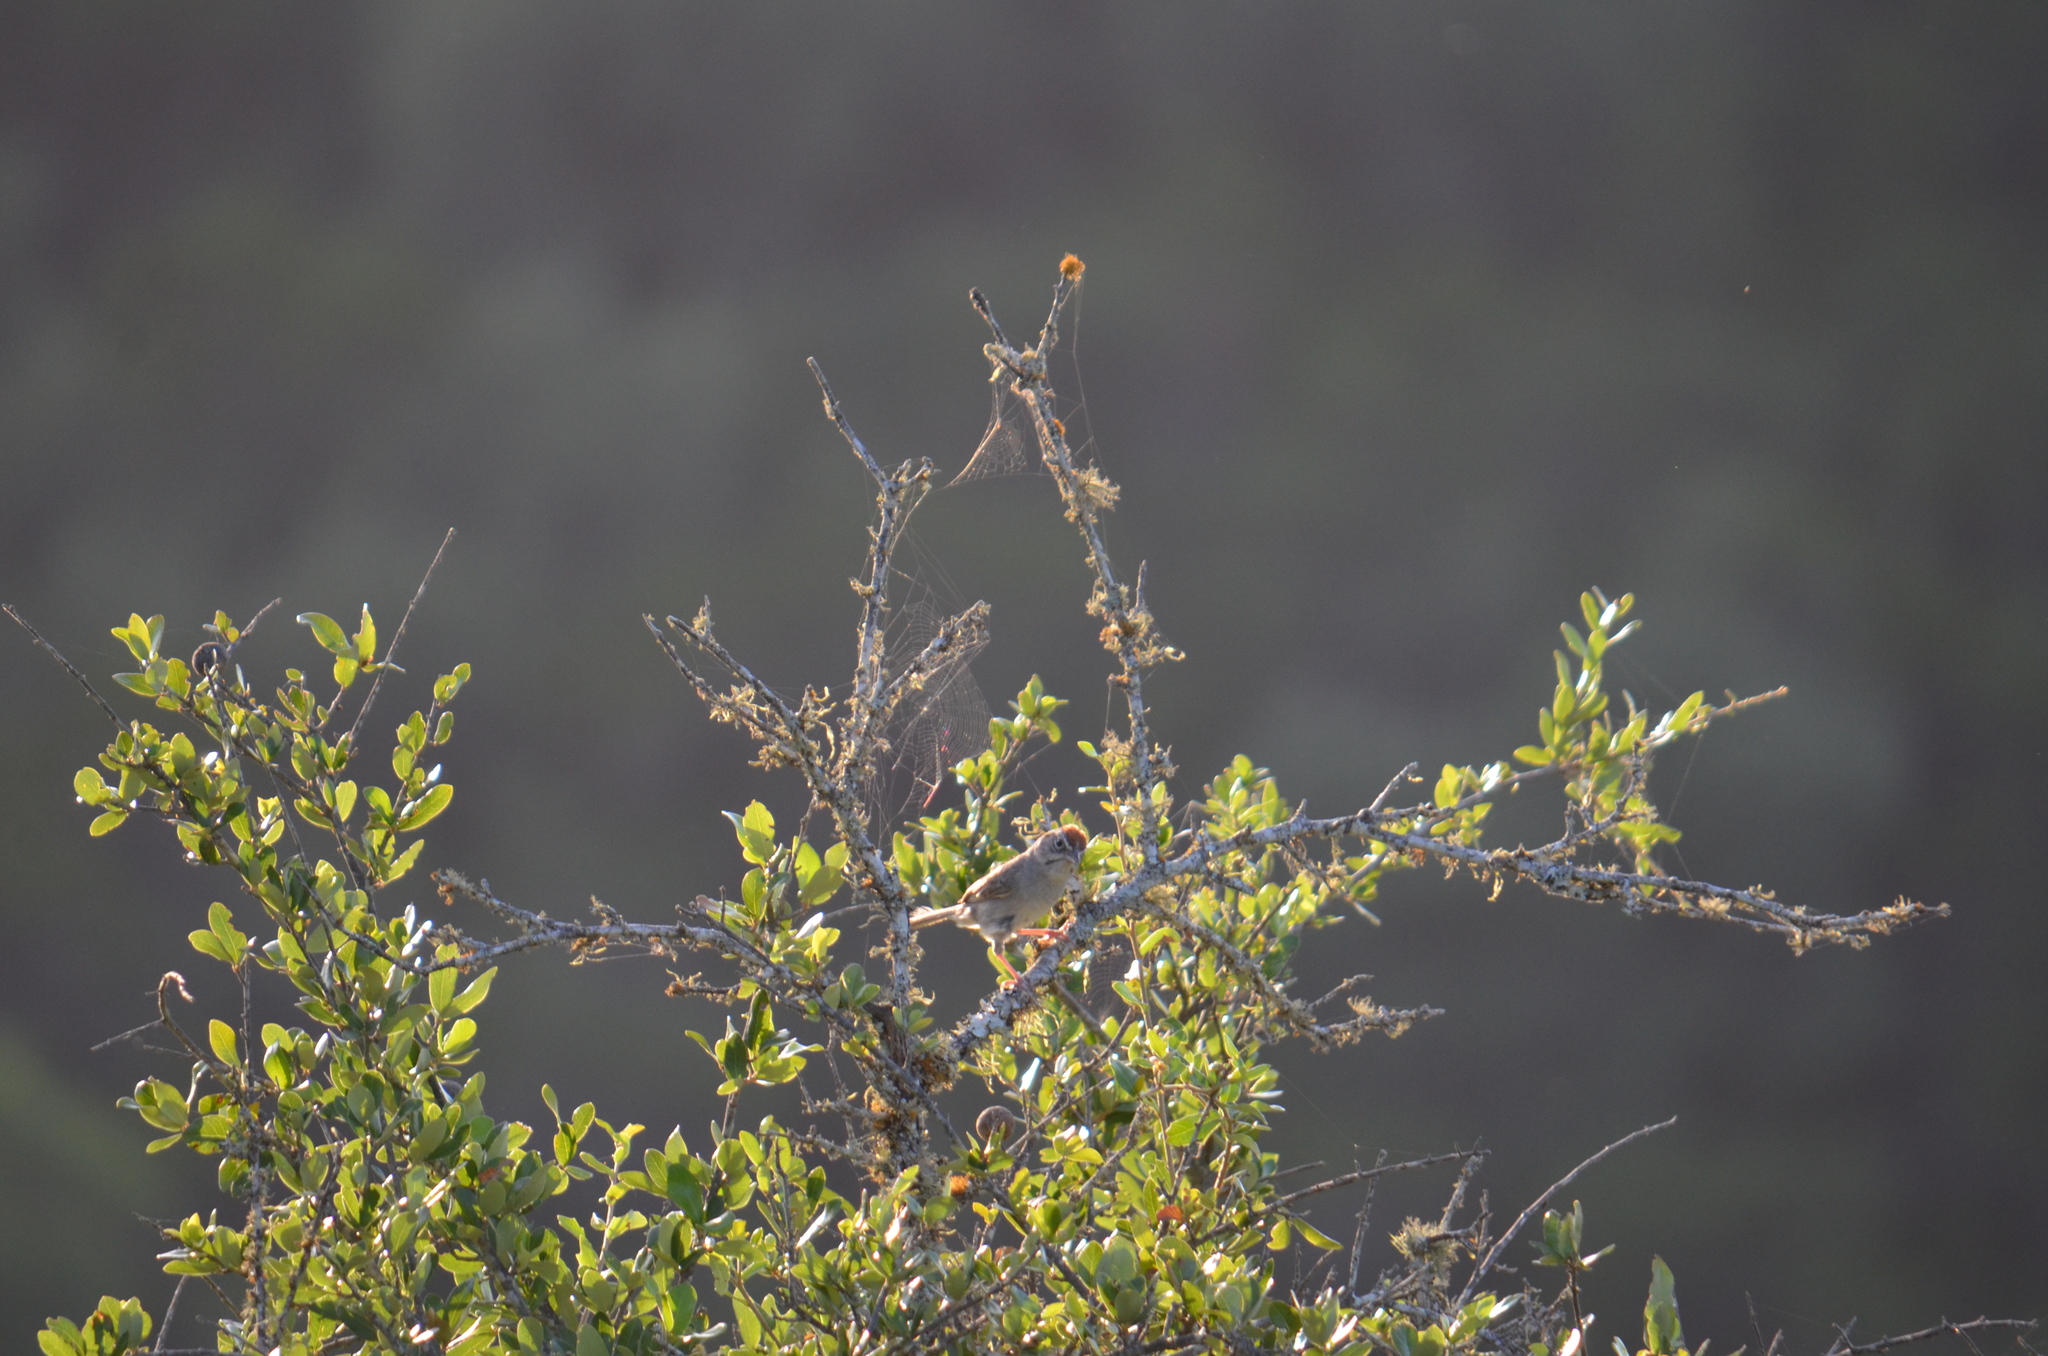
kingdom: Animalia
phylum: Chordata
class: Aves
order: Passeriformes
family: Passerellidae
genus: Aimophila
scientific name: Aimophila ruficeps
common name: Rufous-crowned sparrow
